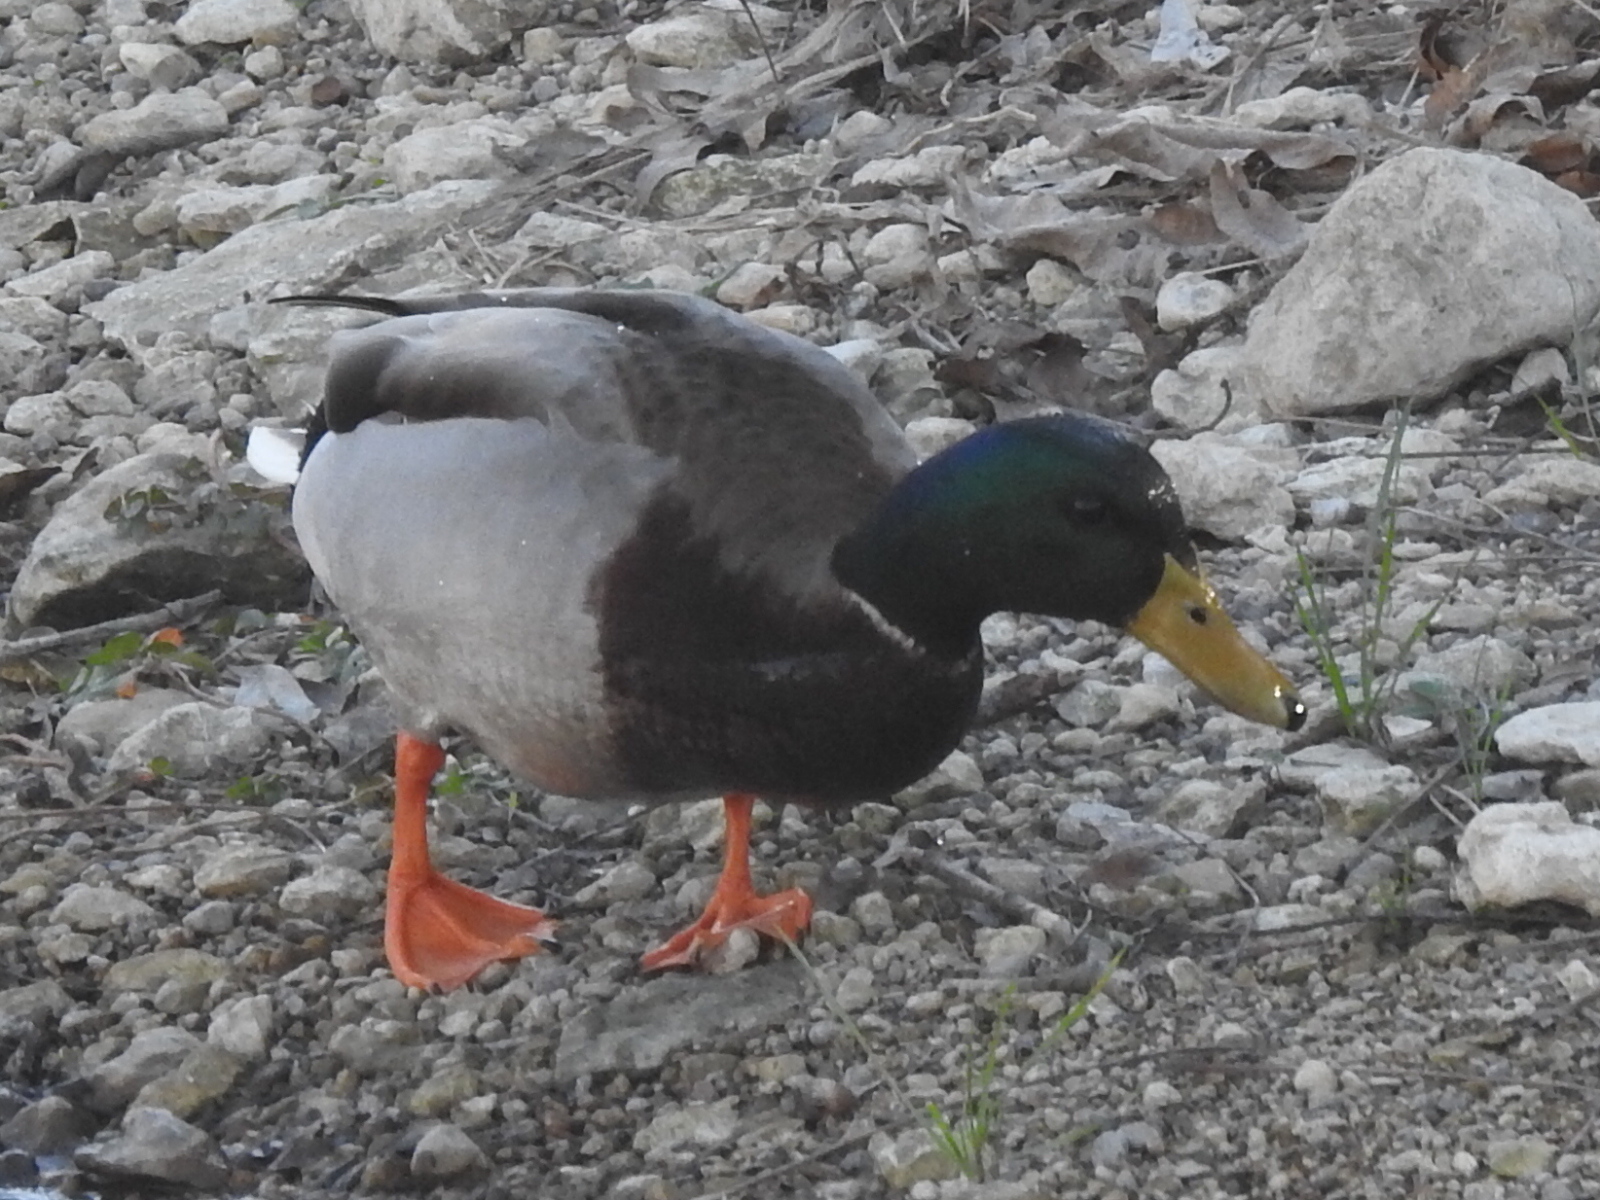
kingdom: Animalia
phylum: Chordata
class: Aves
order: Anseriformes
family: Anatidae
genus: Anas
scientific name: Anas platyrhynchos
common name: Mallard
